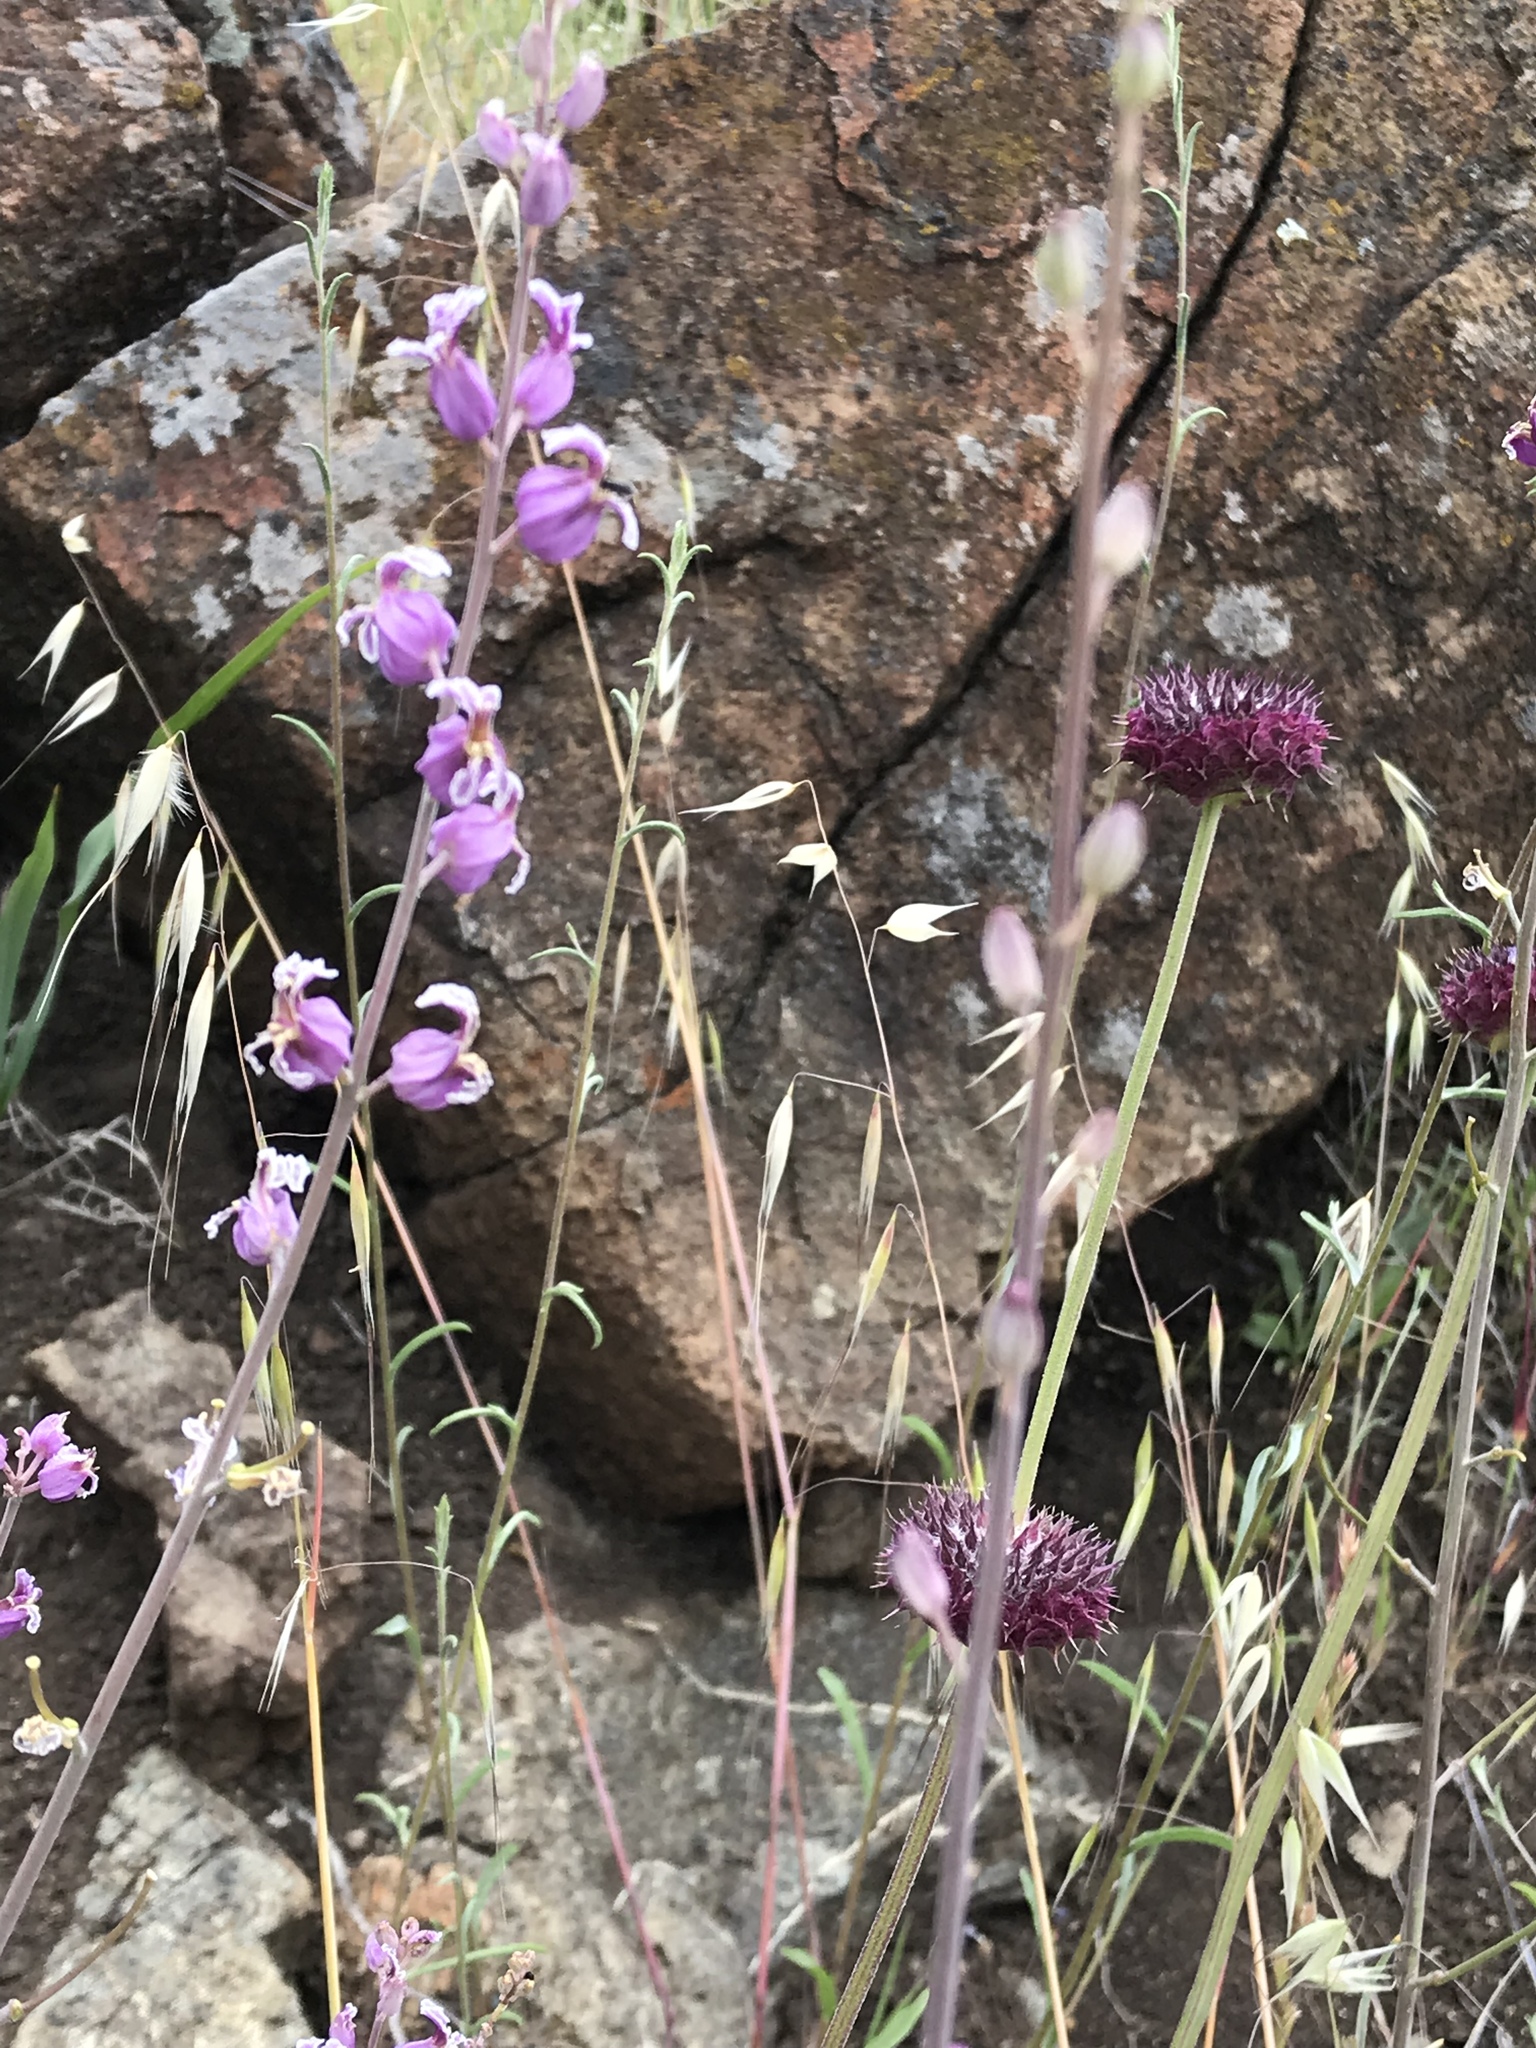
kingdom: Plantae
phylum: Tracheophyta
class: Magnoliopsida
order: Brassicales
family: Brassicaceae
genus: Streptanthus
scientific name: Streptanthus glandulosus
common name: Jewel-flower
